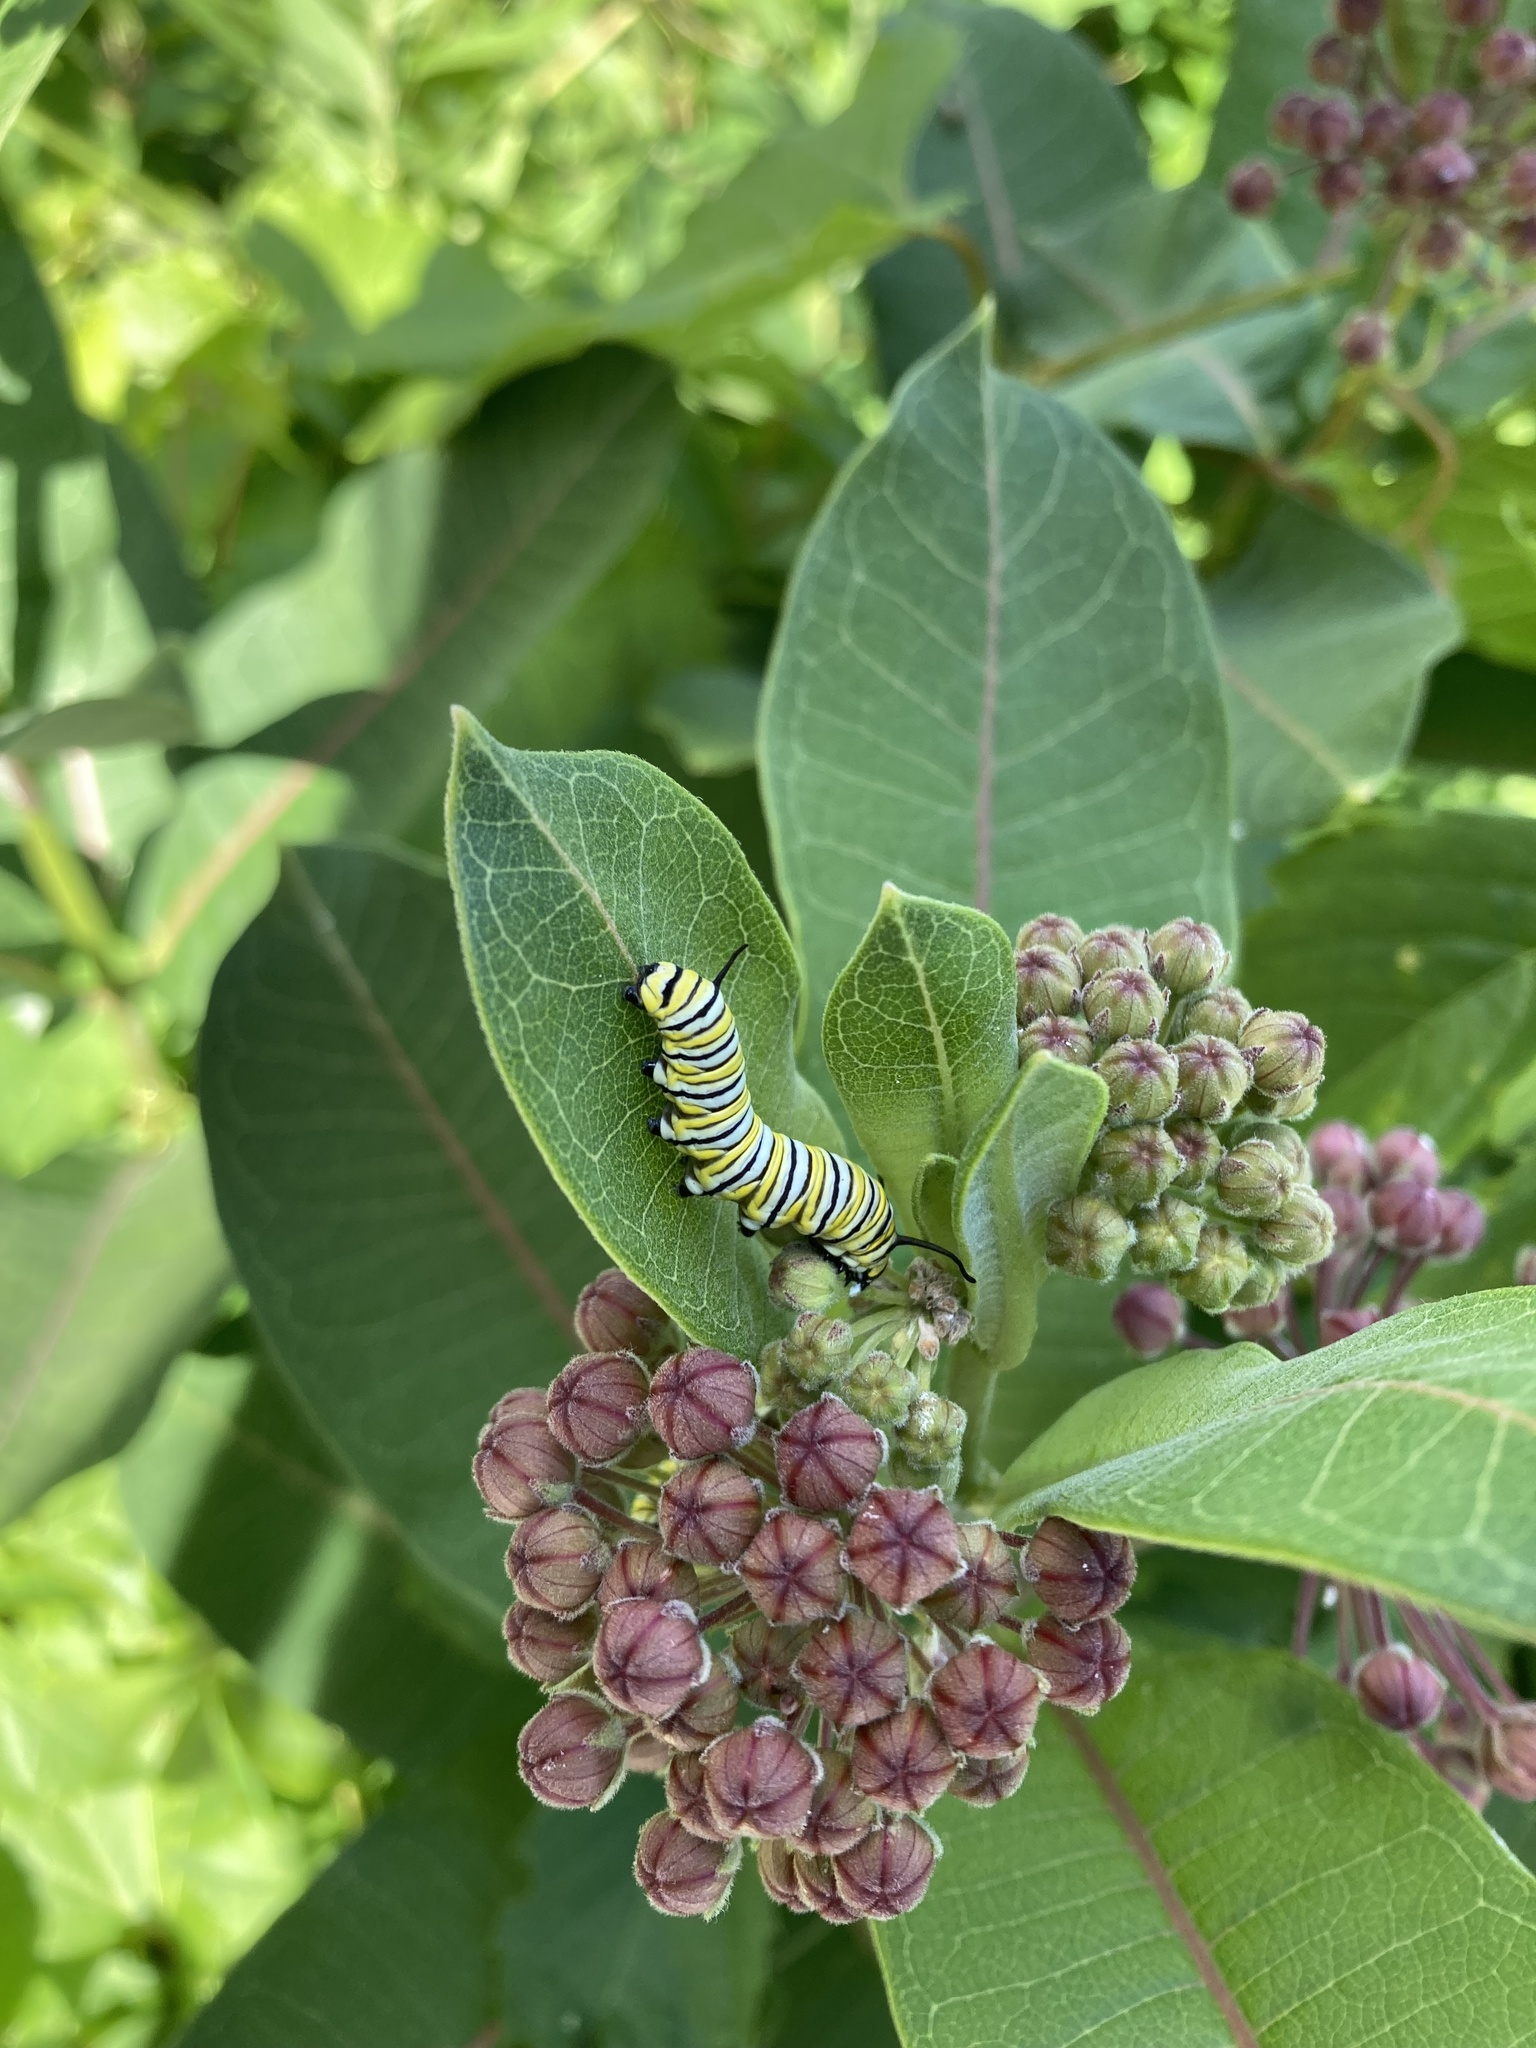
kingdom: Animalia
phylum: Arthropoda
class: Insecta
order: Lepidoptera
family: Nymphalidae
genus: Danaus
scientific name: Danaus plexippus
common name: Monarch
